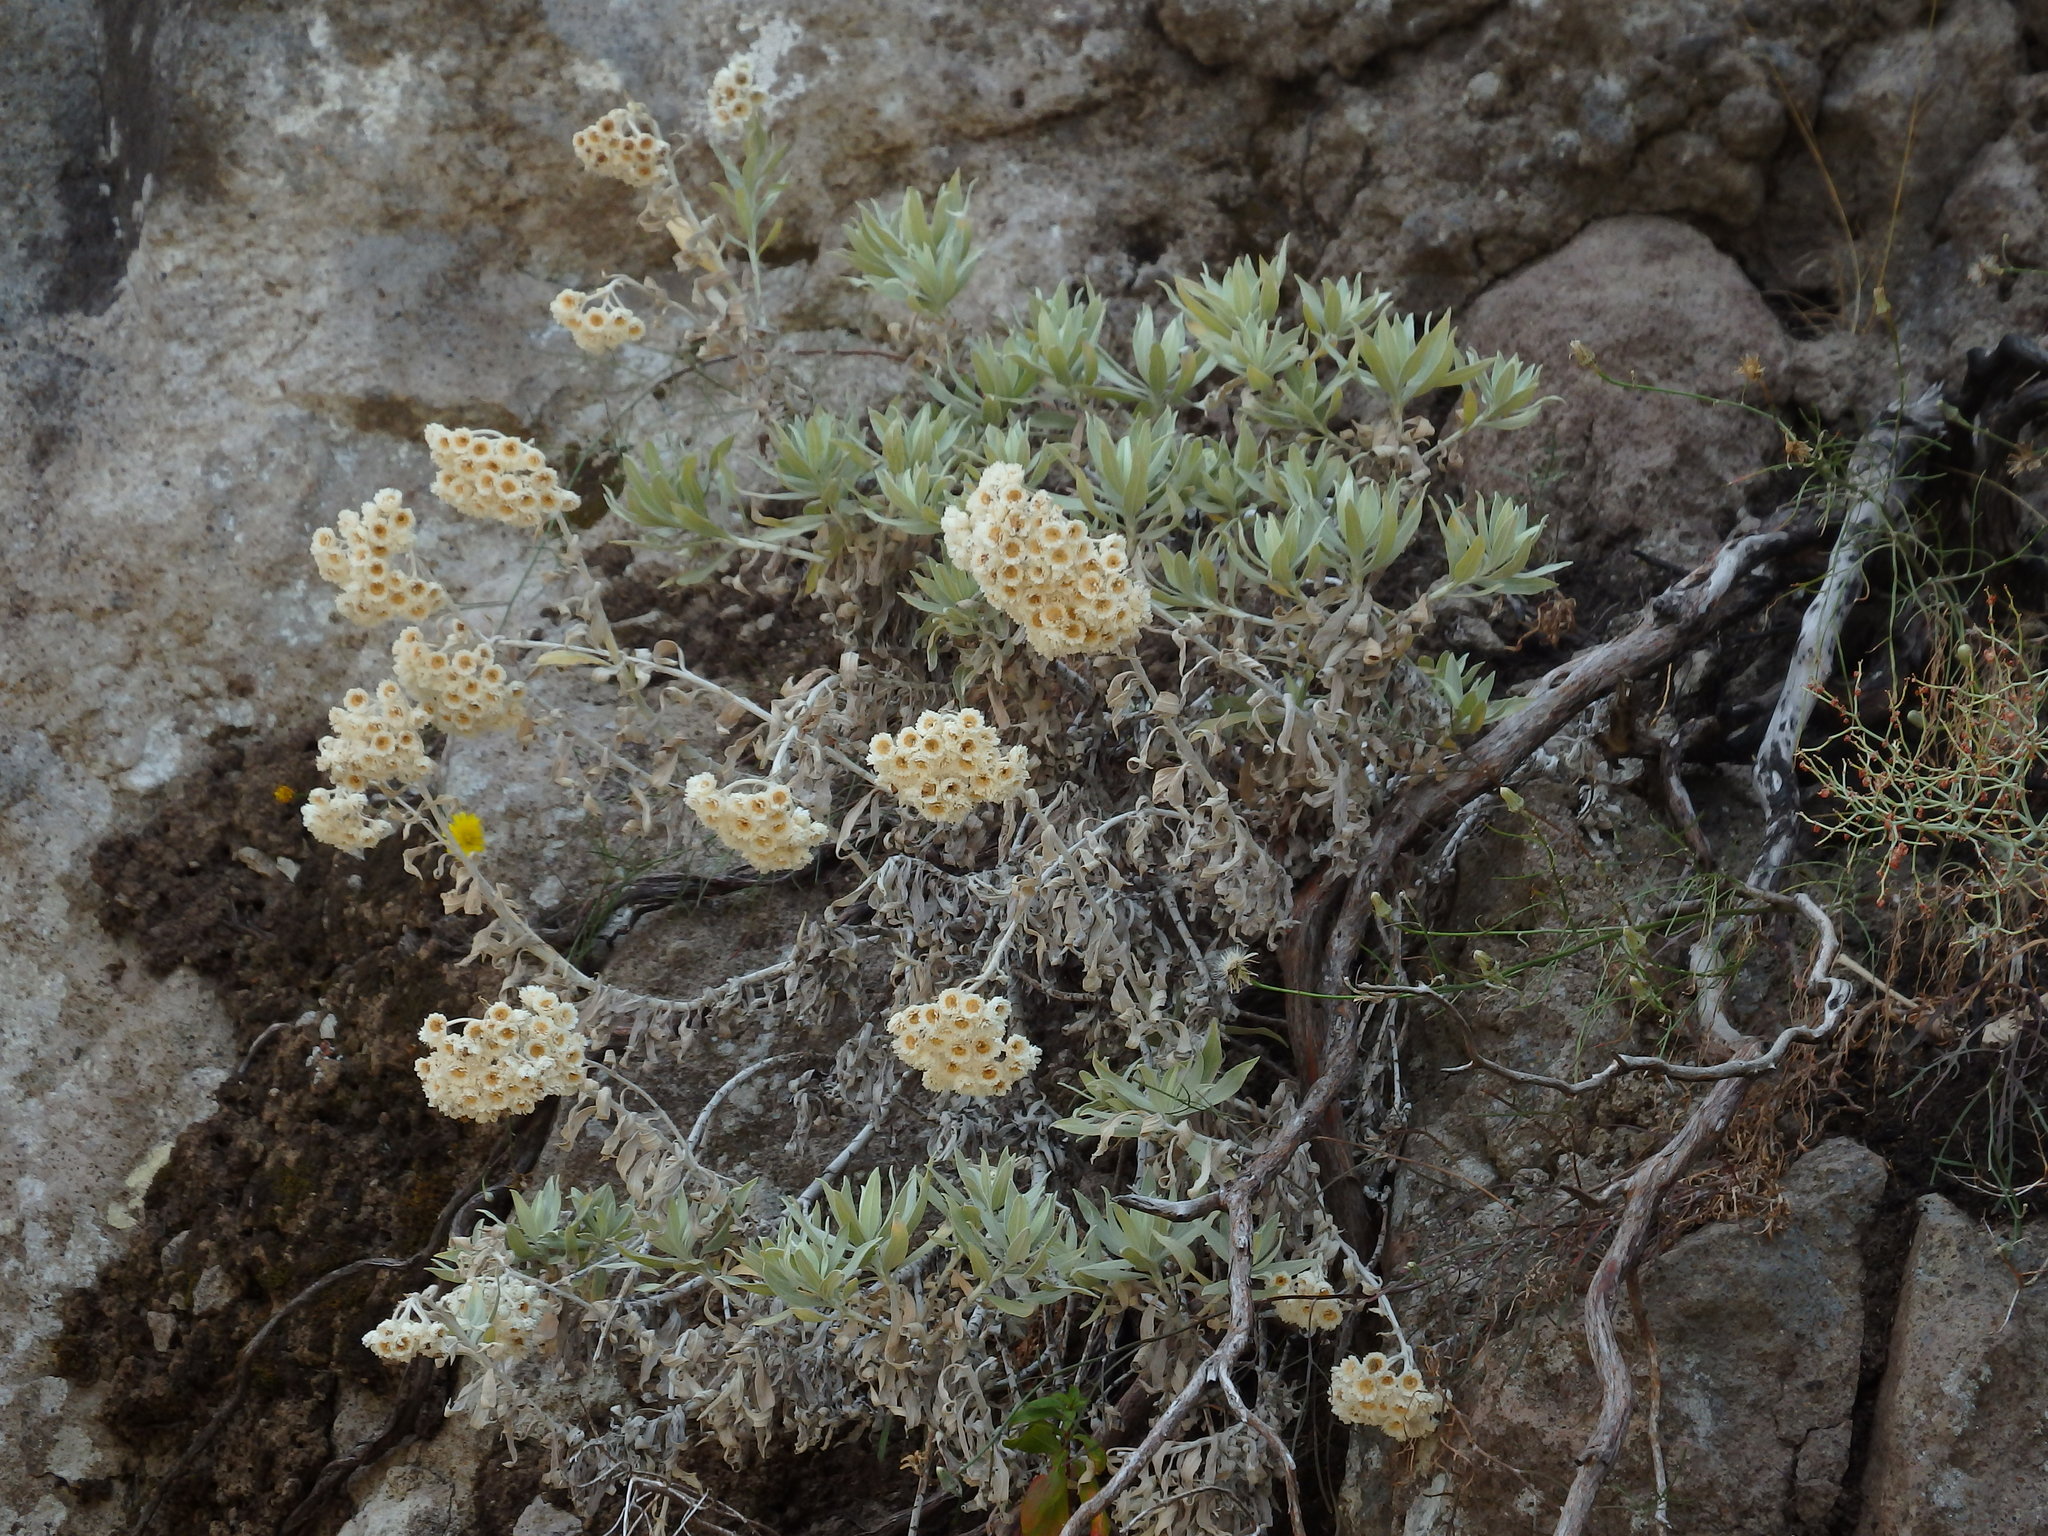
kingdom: Plantae
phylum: Tracheophyta
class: Magnoliopsida
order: Asterales
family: Asteraceae
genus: Helichrysum
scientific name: Helichrysum melaleucum
